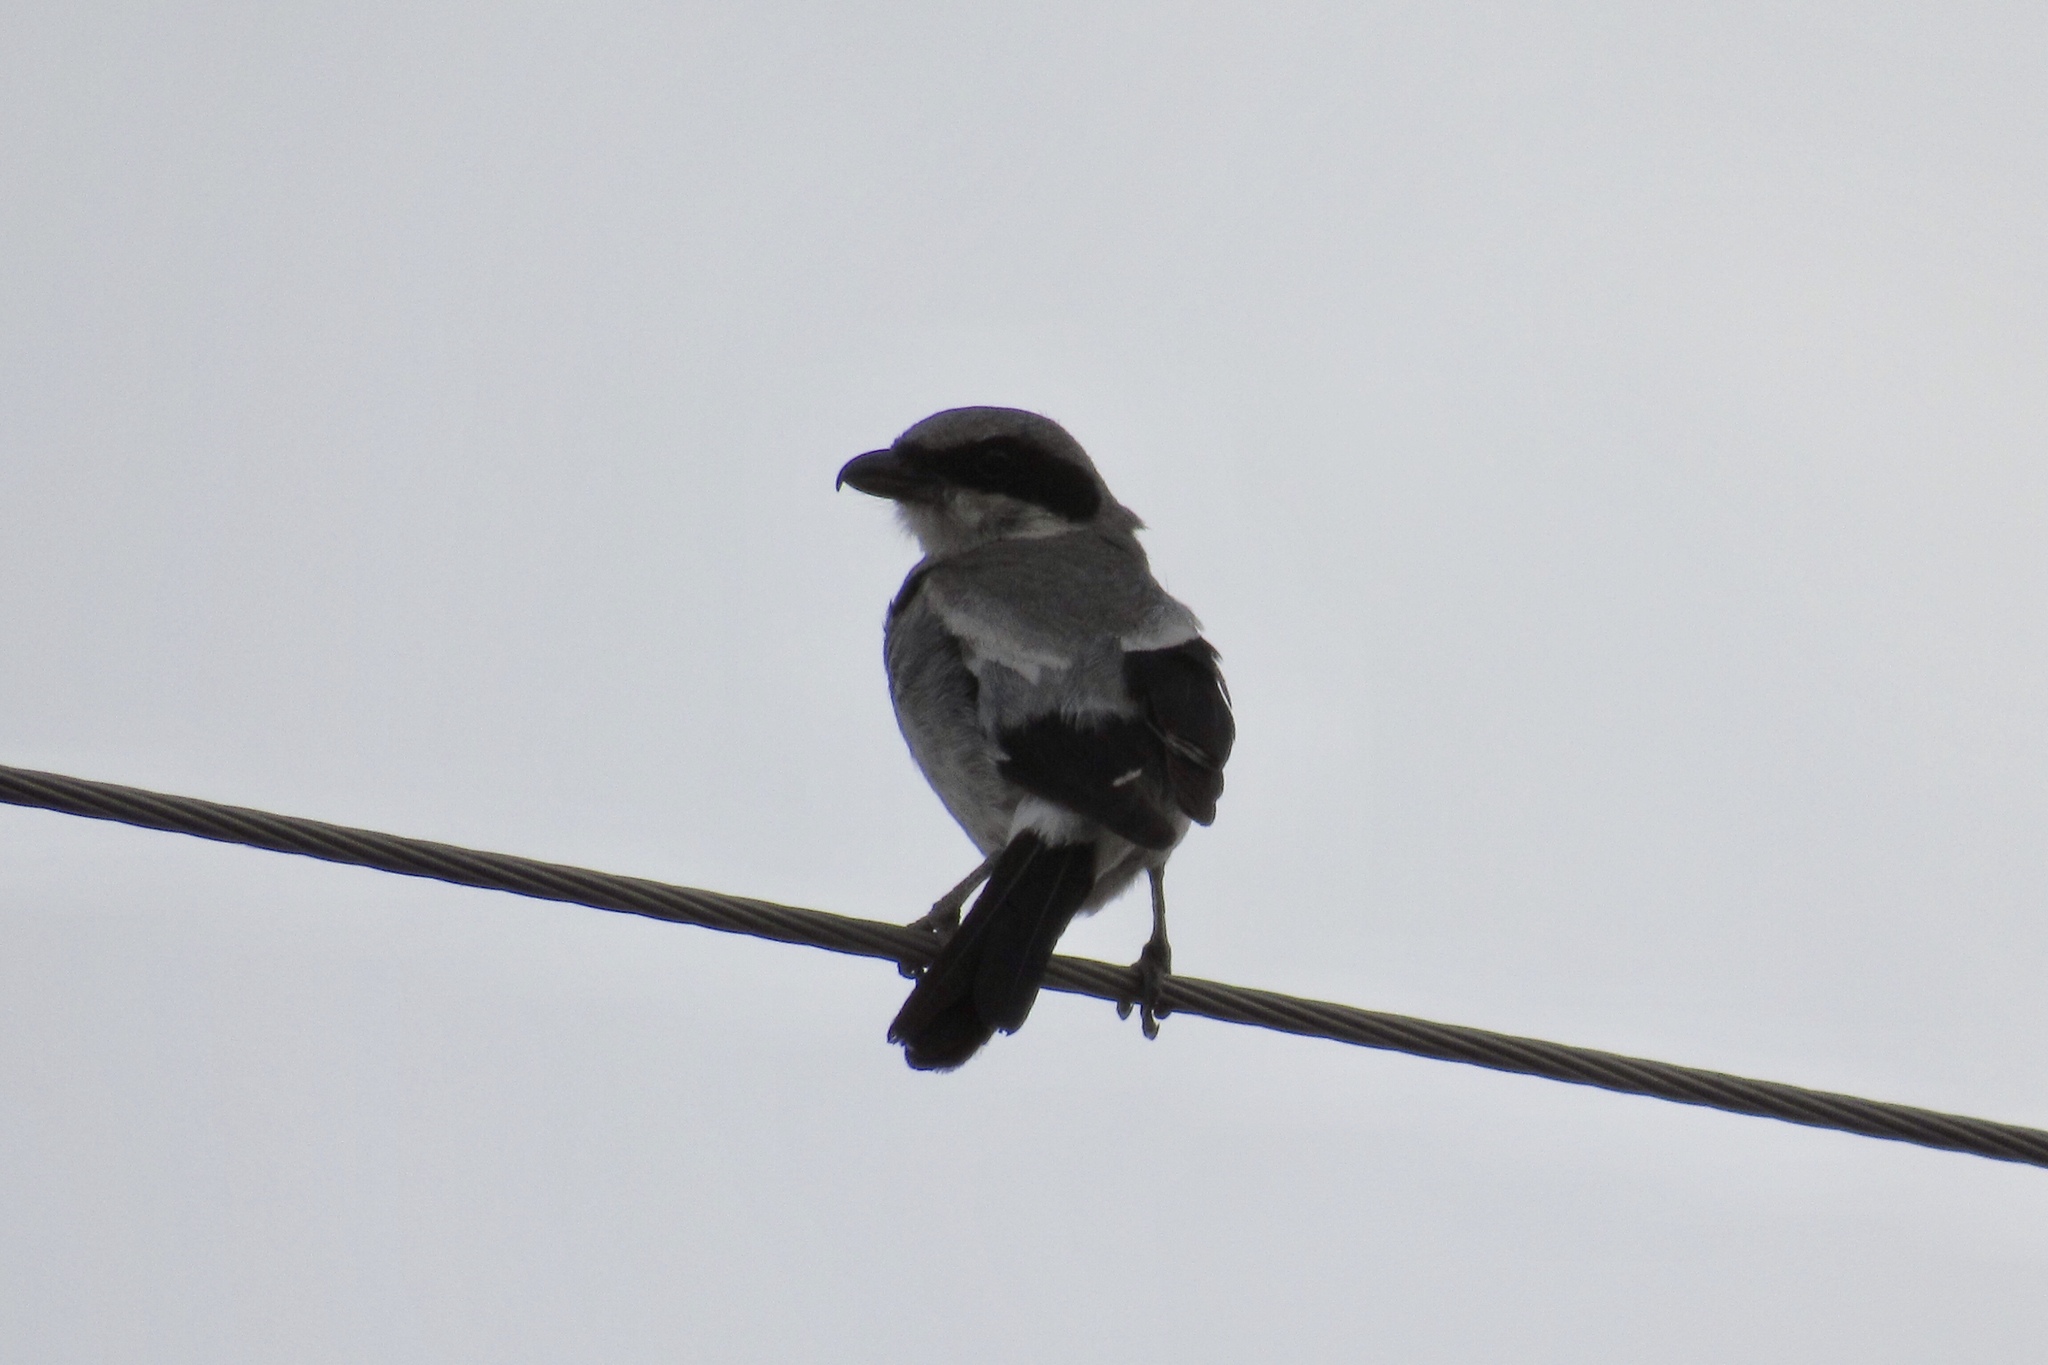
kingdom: Animalia
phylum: Chordata
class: Aves
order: Passeriformes
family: Laniidae
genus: Lanius
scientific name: Lanius ludovicianus
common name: Loggerhead shrike
